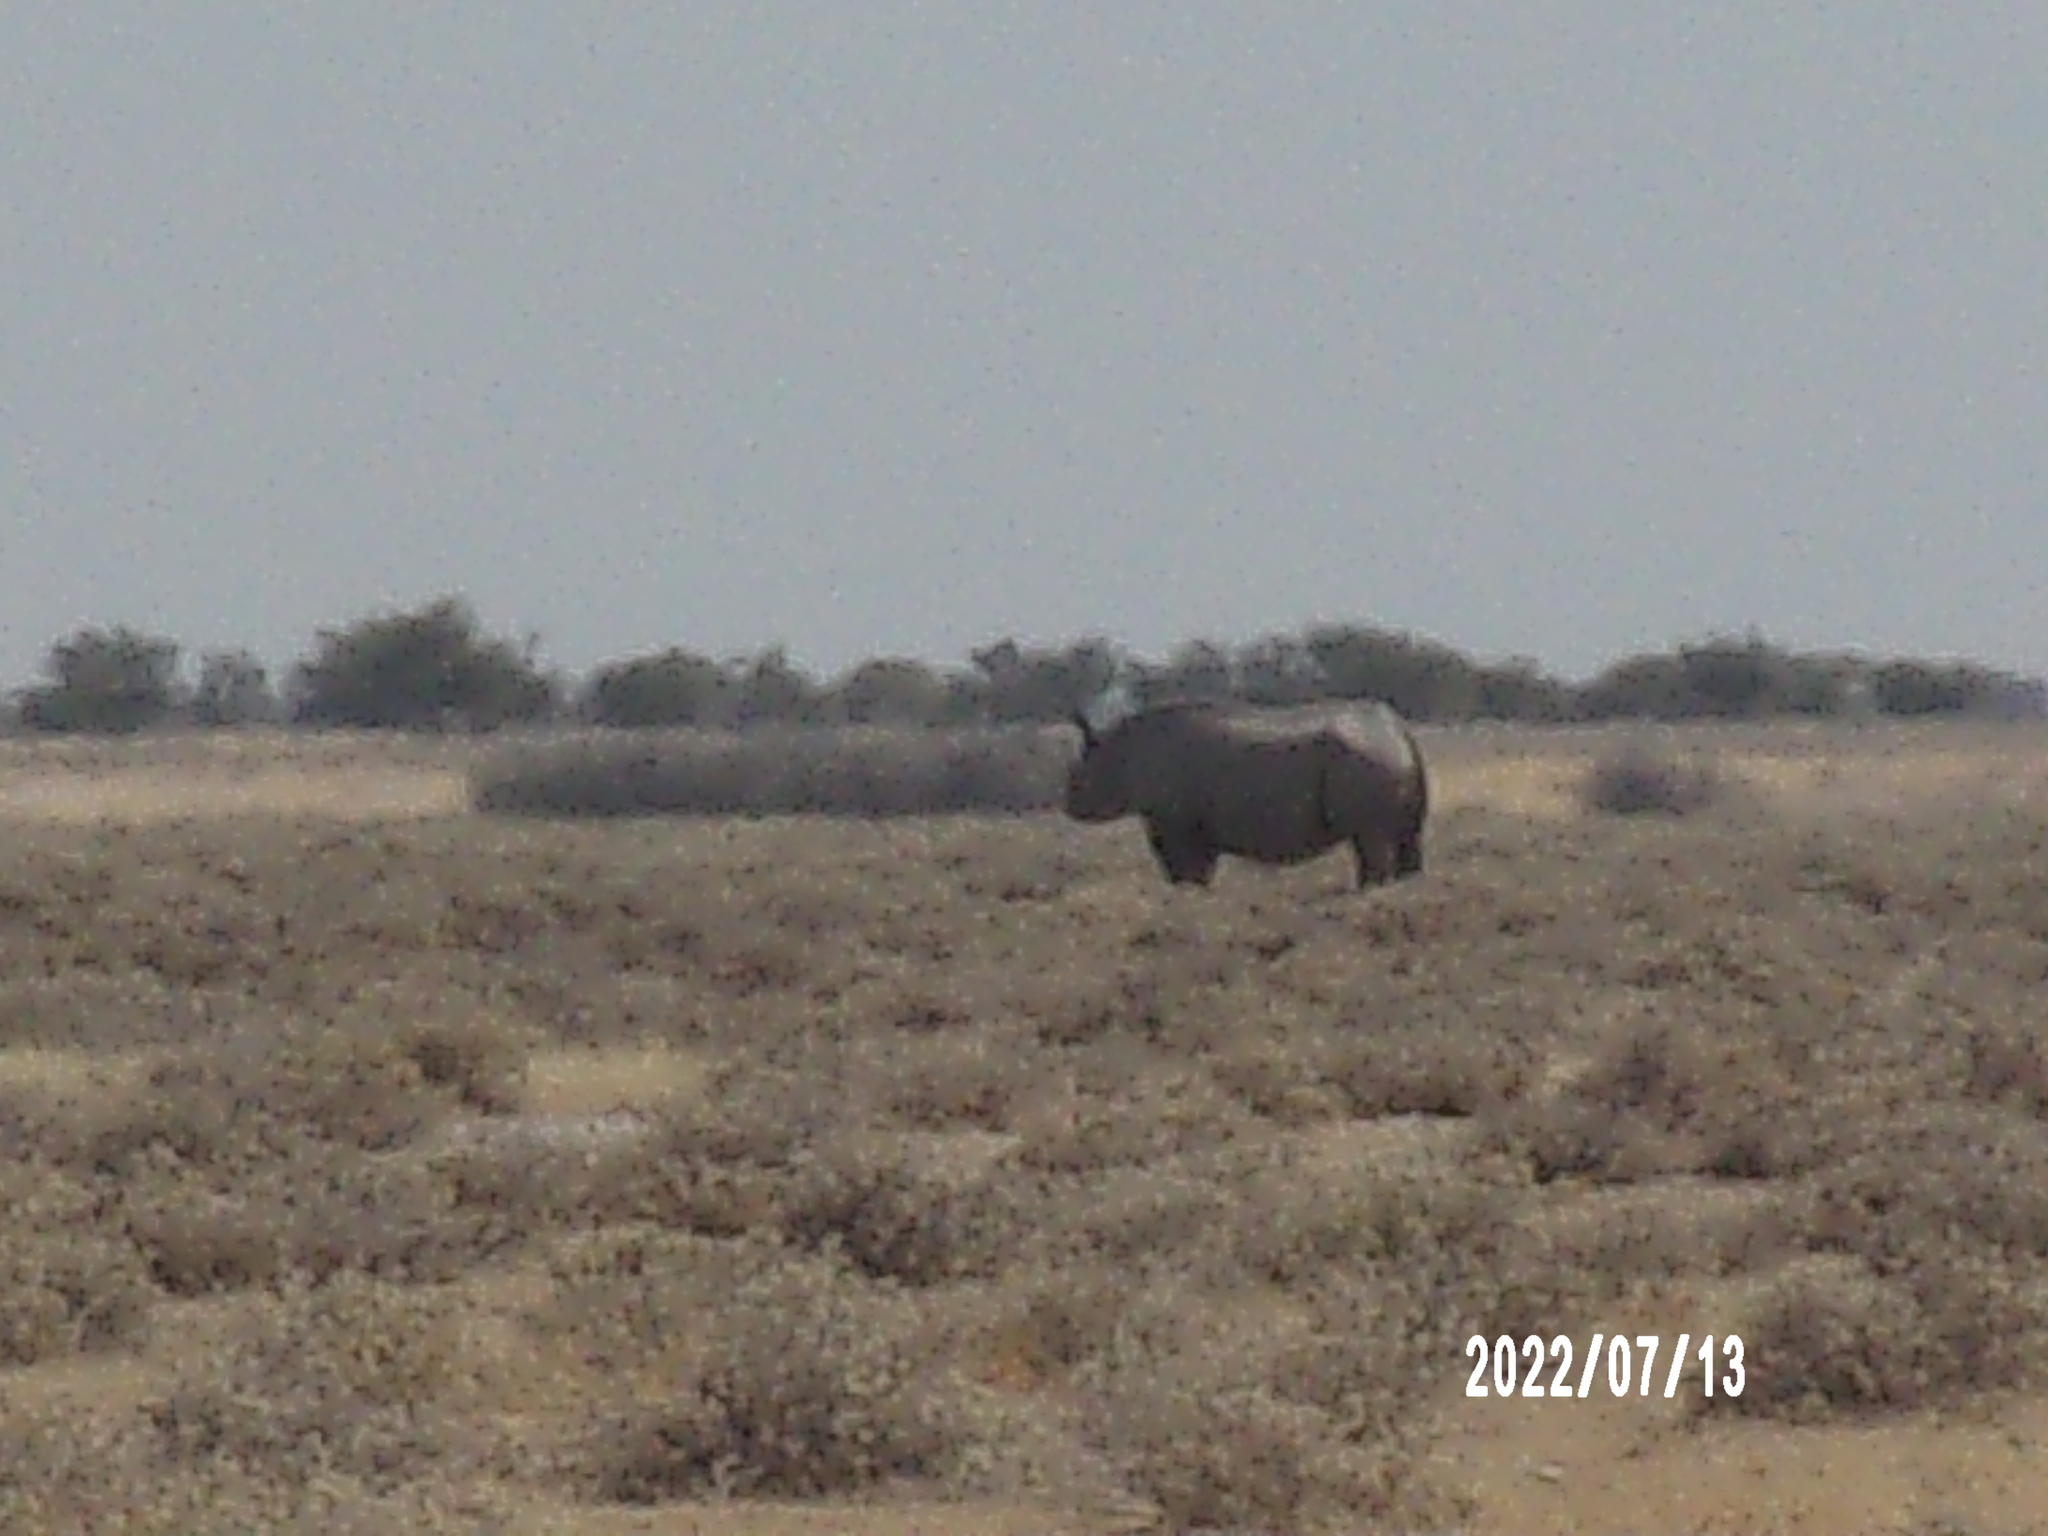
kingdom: Animalia
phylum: Chordata
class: Mammalia
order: Perissodactyla
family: Rhinocerotidae
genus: Diceros
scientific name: Diceros bicornis
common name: Black rhinoceros
